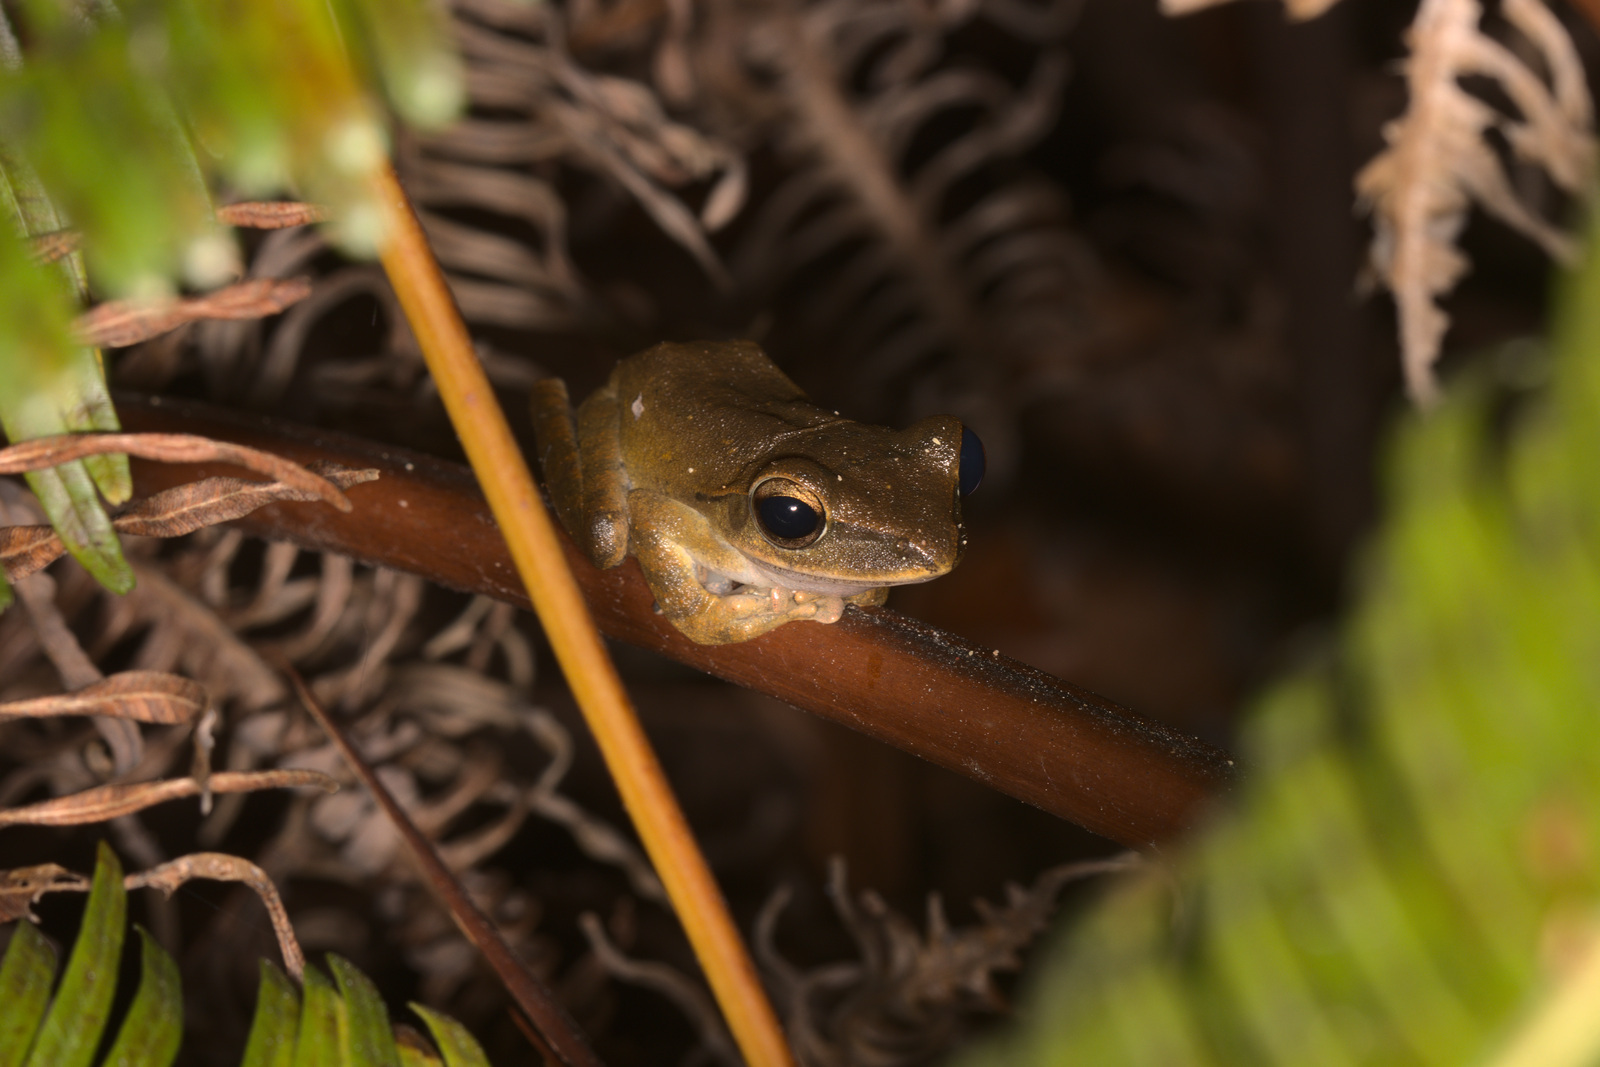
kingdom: Animalia
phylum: Chordata
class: Amphibia
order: Anura
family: Rhacophoridae
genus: Polypedates
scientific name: Polypedates leucomystax
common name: Common tree frog/four-lined tree frog
